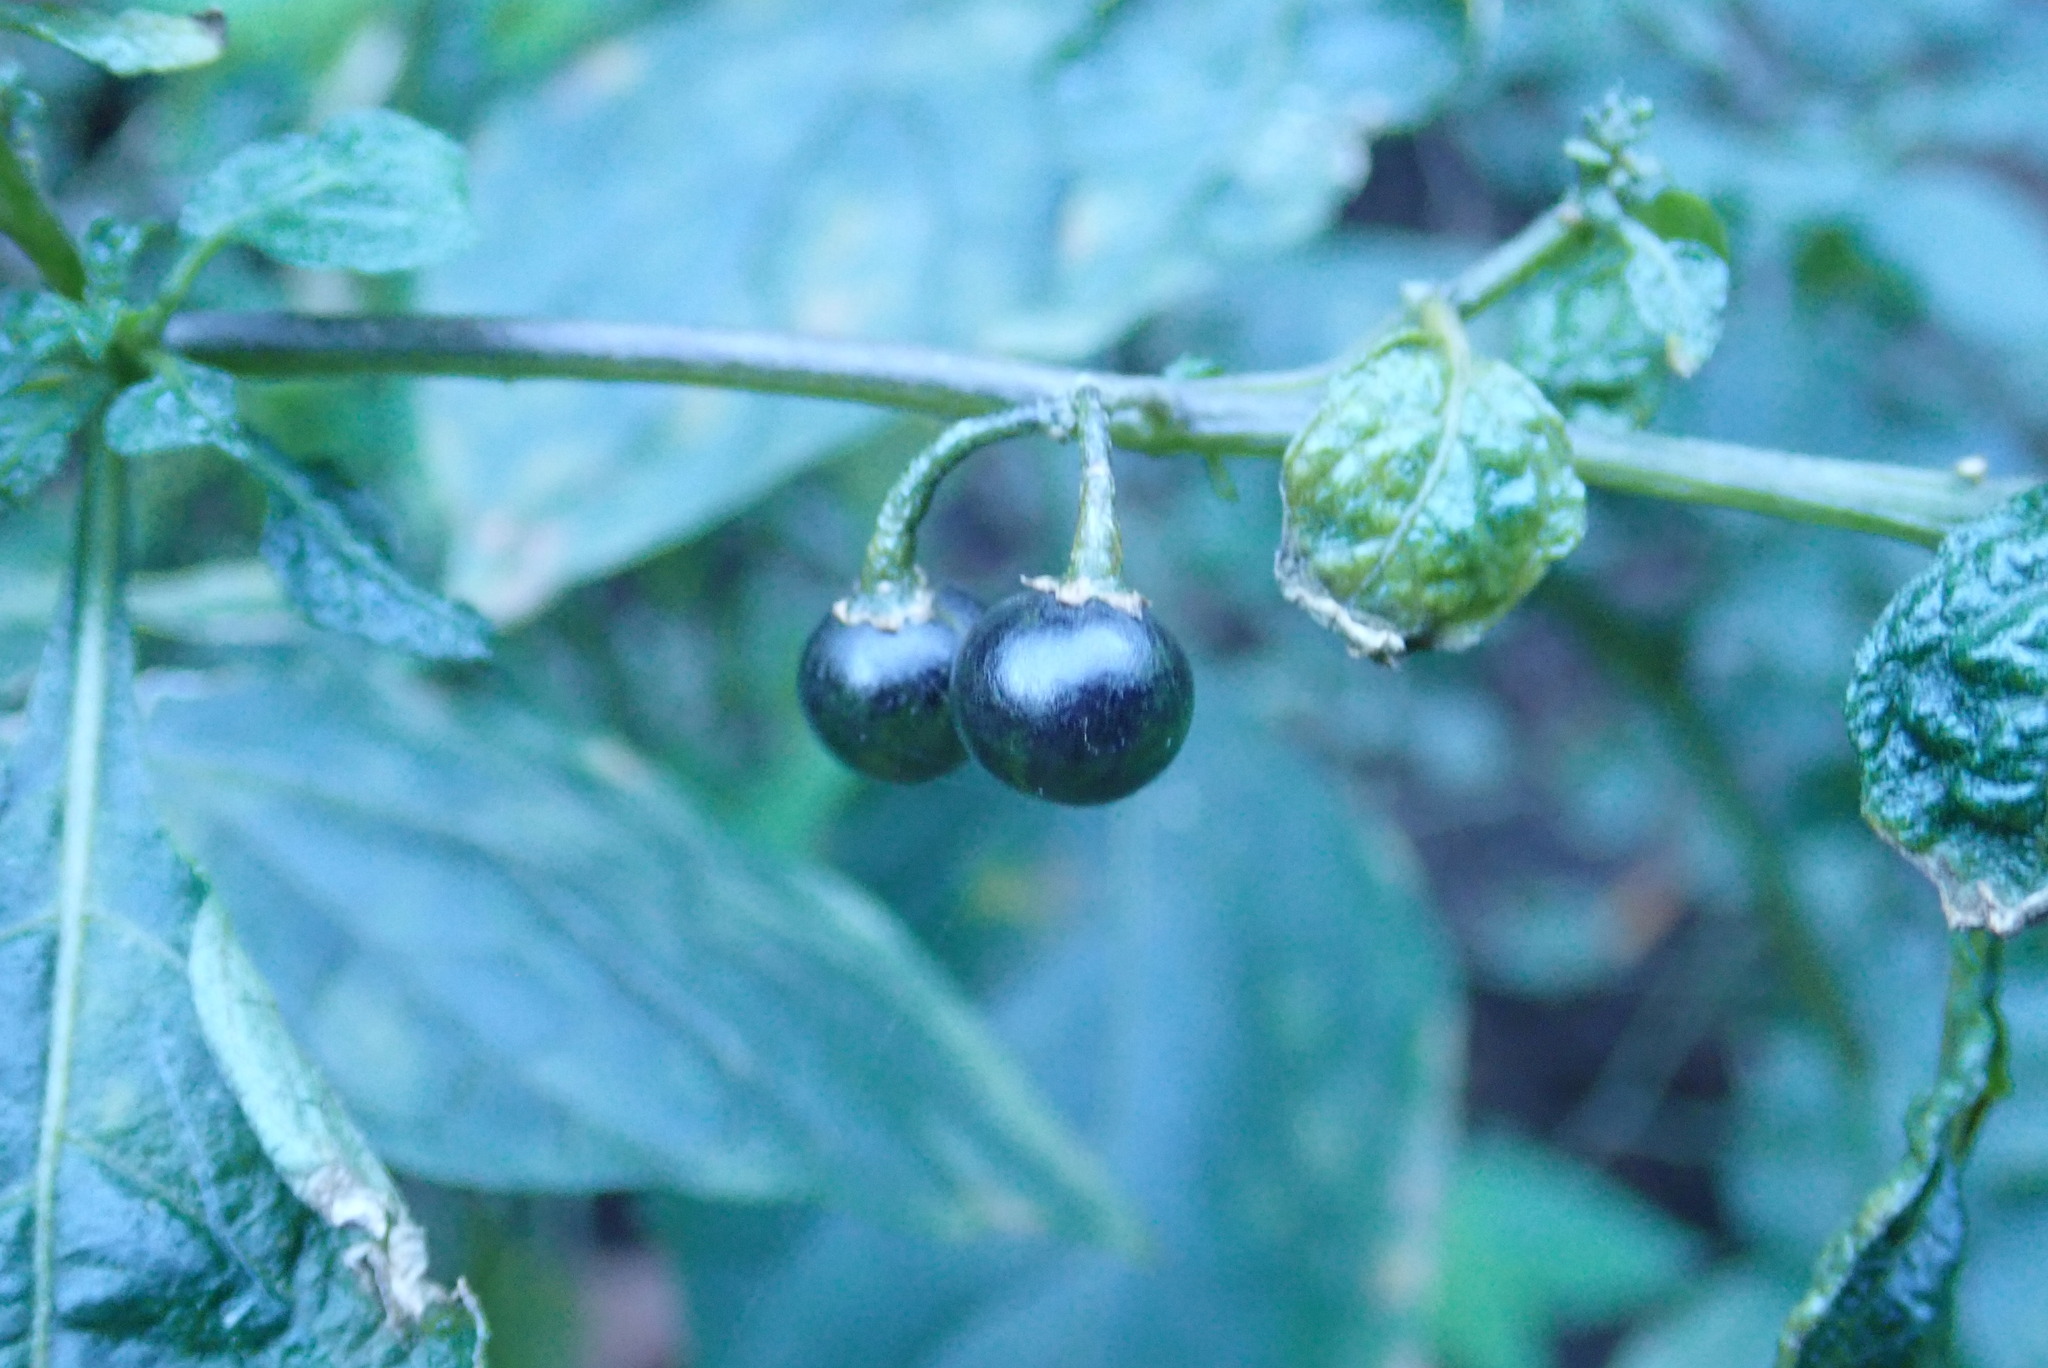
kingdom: Plantae
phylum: Tracheophyta
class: Magnoliopsida
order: Solanales
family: Solanaceae
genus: Solanum
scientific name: Solanum nigrum
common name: Black nightshade
